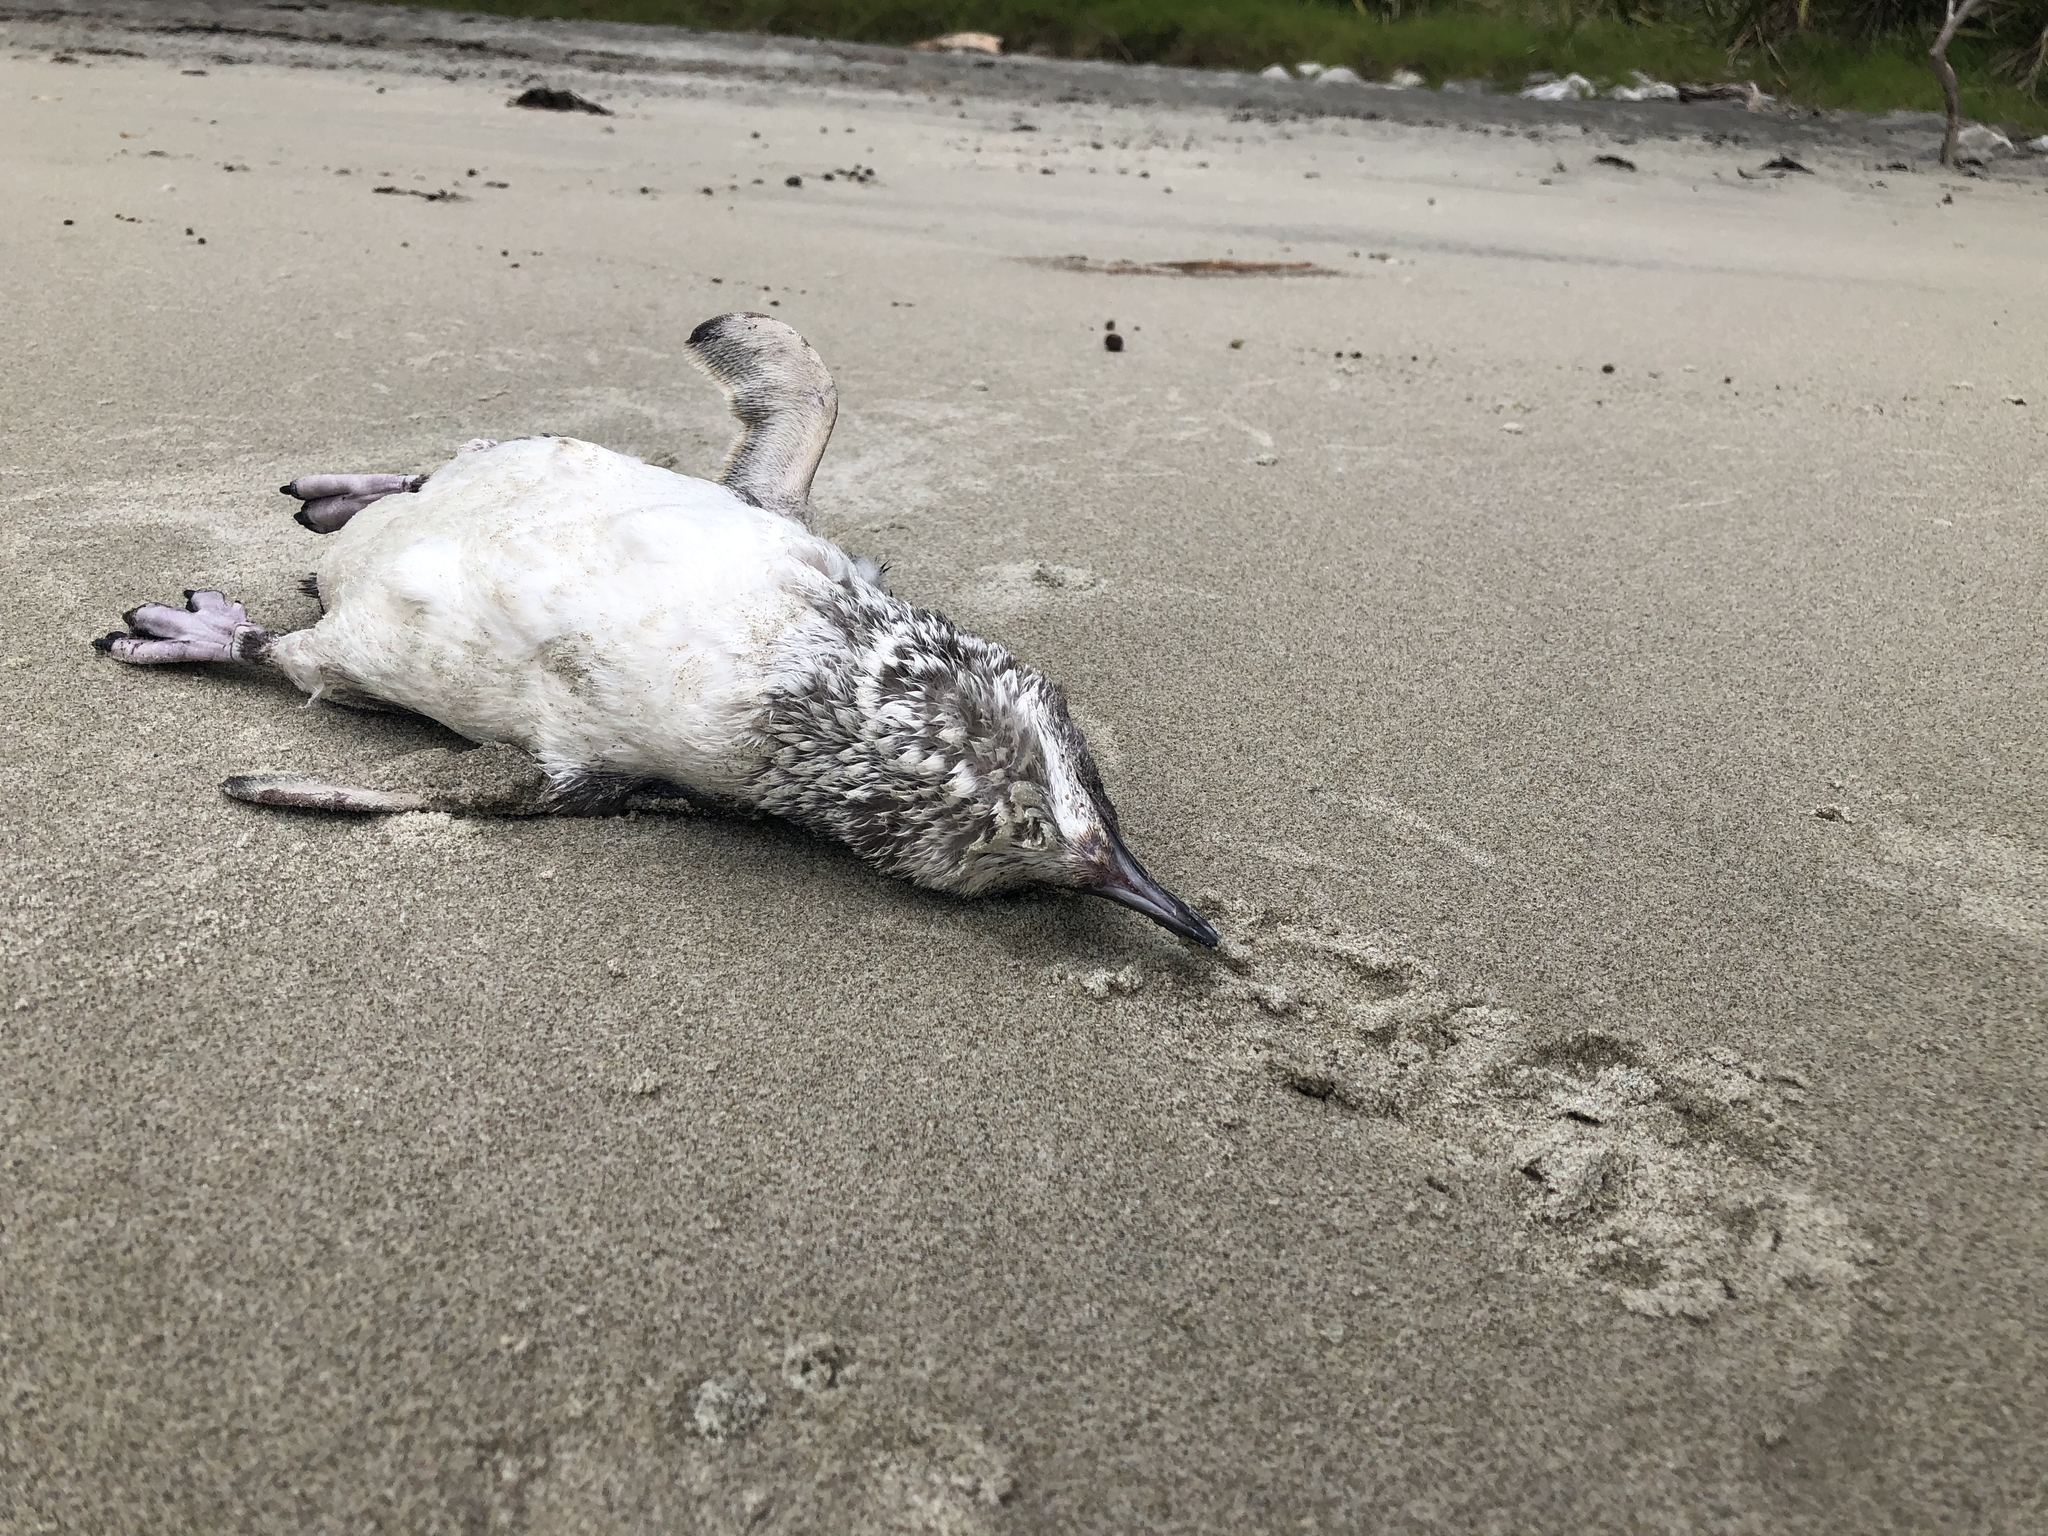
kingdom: Animalia
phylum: Chordata
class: Aves
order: Sphenisciformes
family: Spheniscidae
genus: Eudyptula
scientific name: Eudyptula minor
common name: Little penguin
